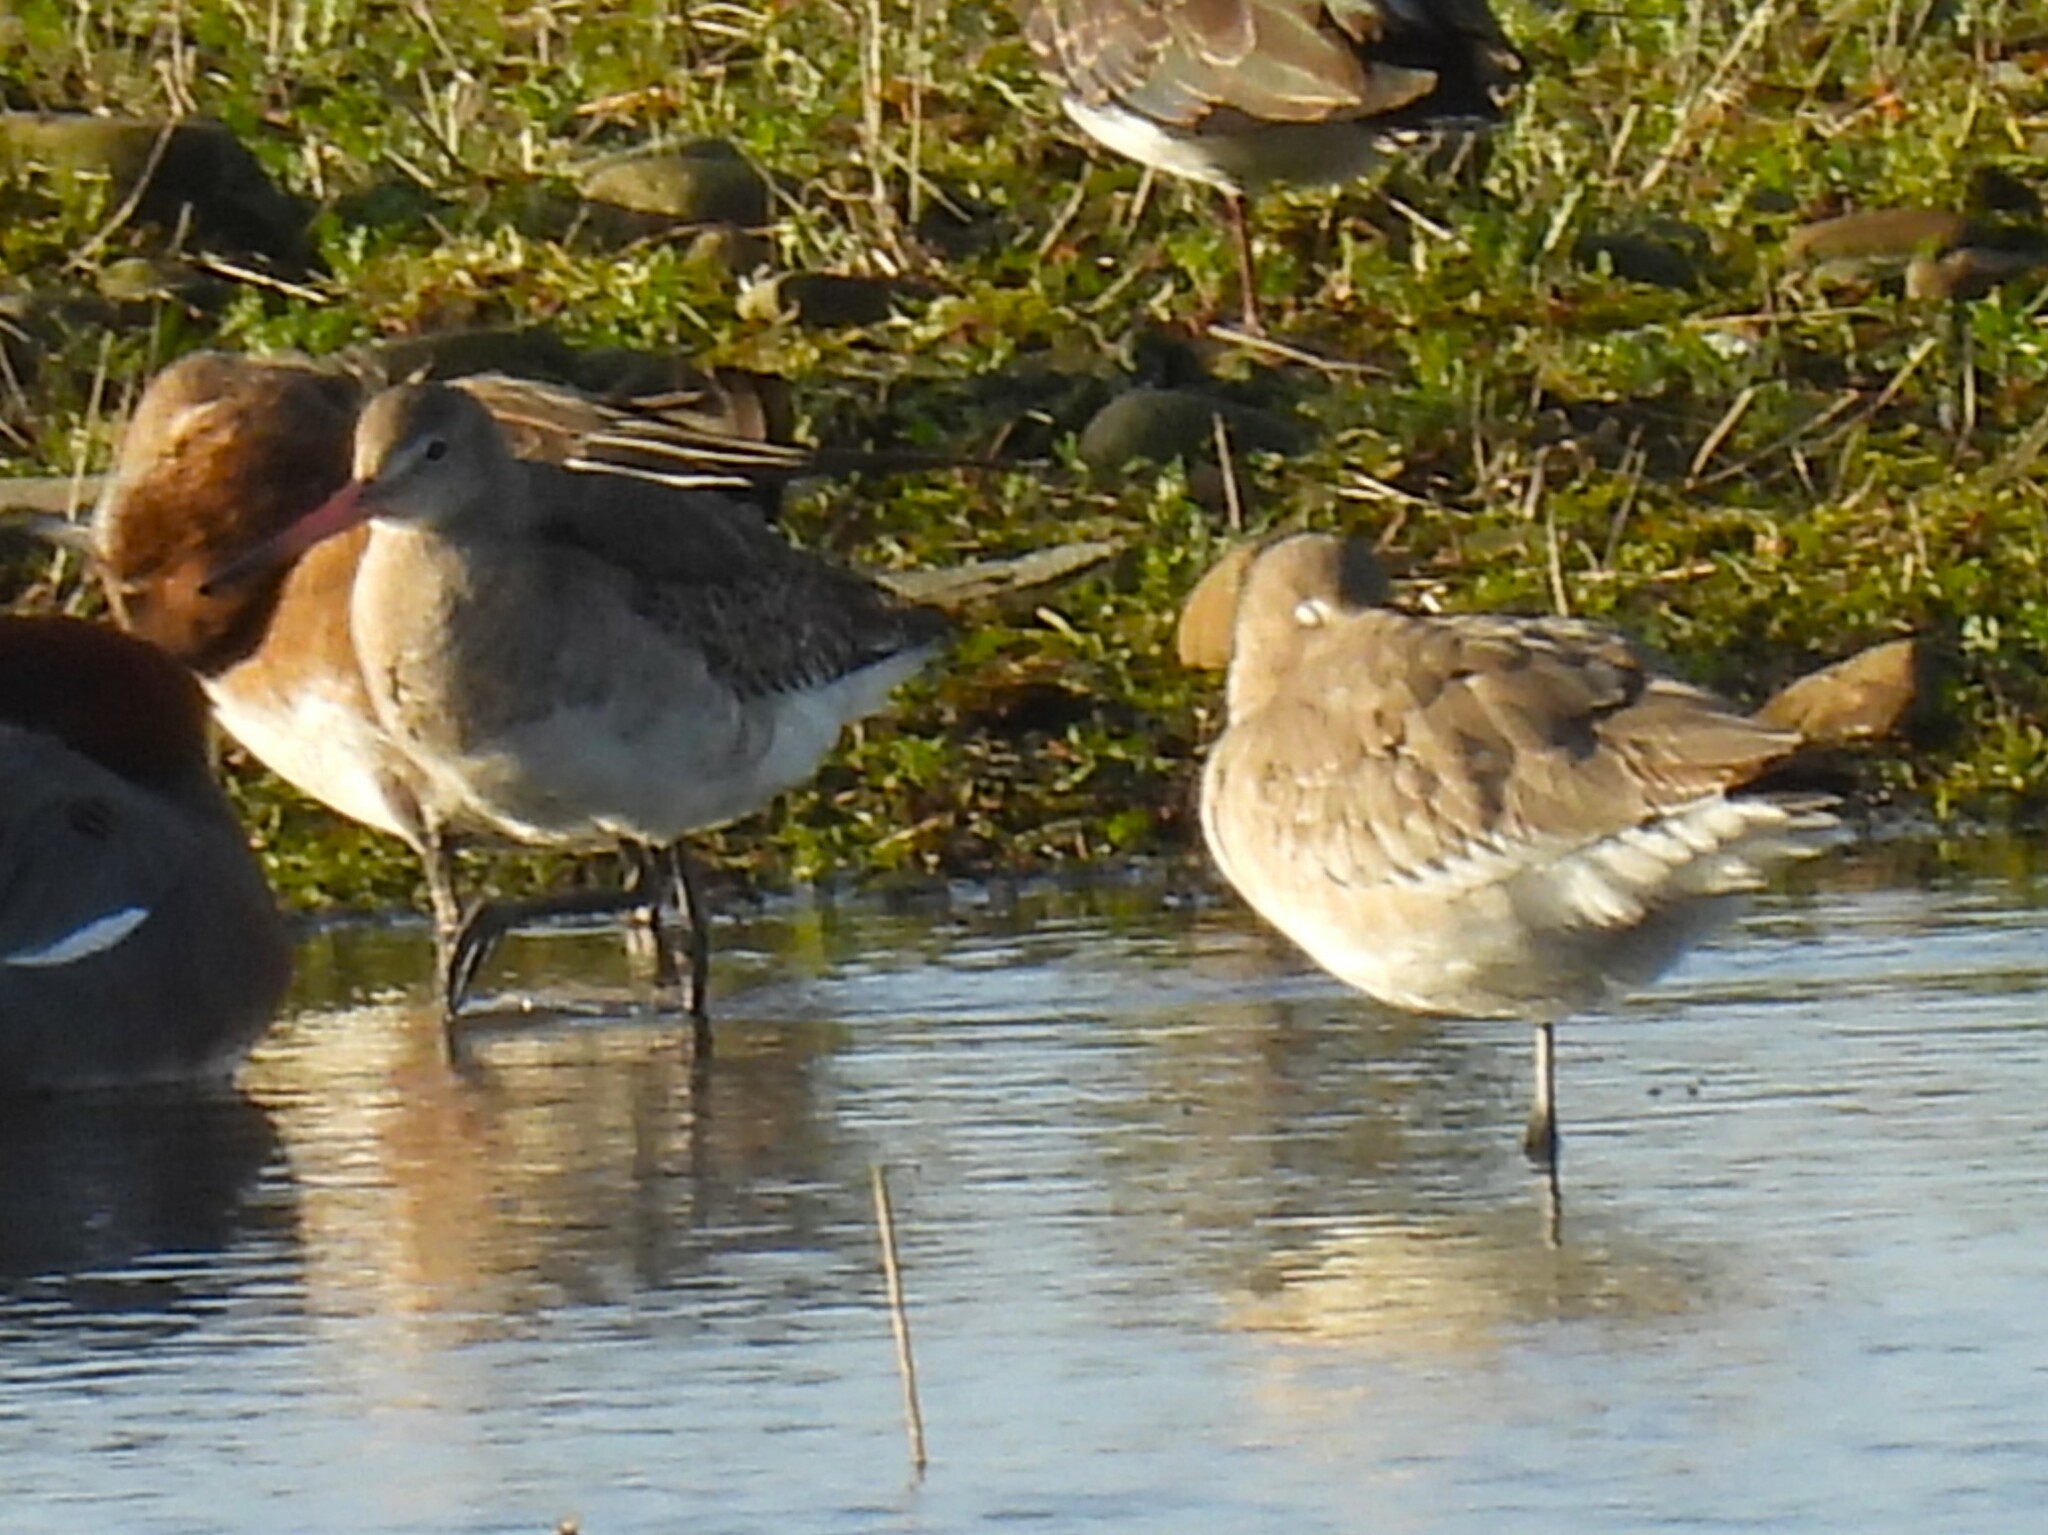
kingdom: Animalia
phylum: Chordata
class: Aves
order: Charadriiformes
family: Scolopacidae
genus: Limosa
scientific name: Limosa limosa
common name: Black-tailed godwit
